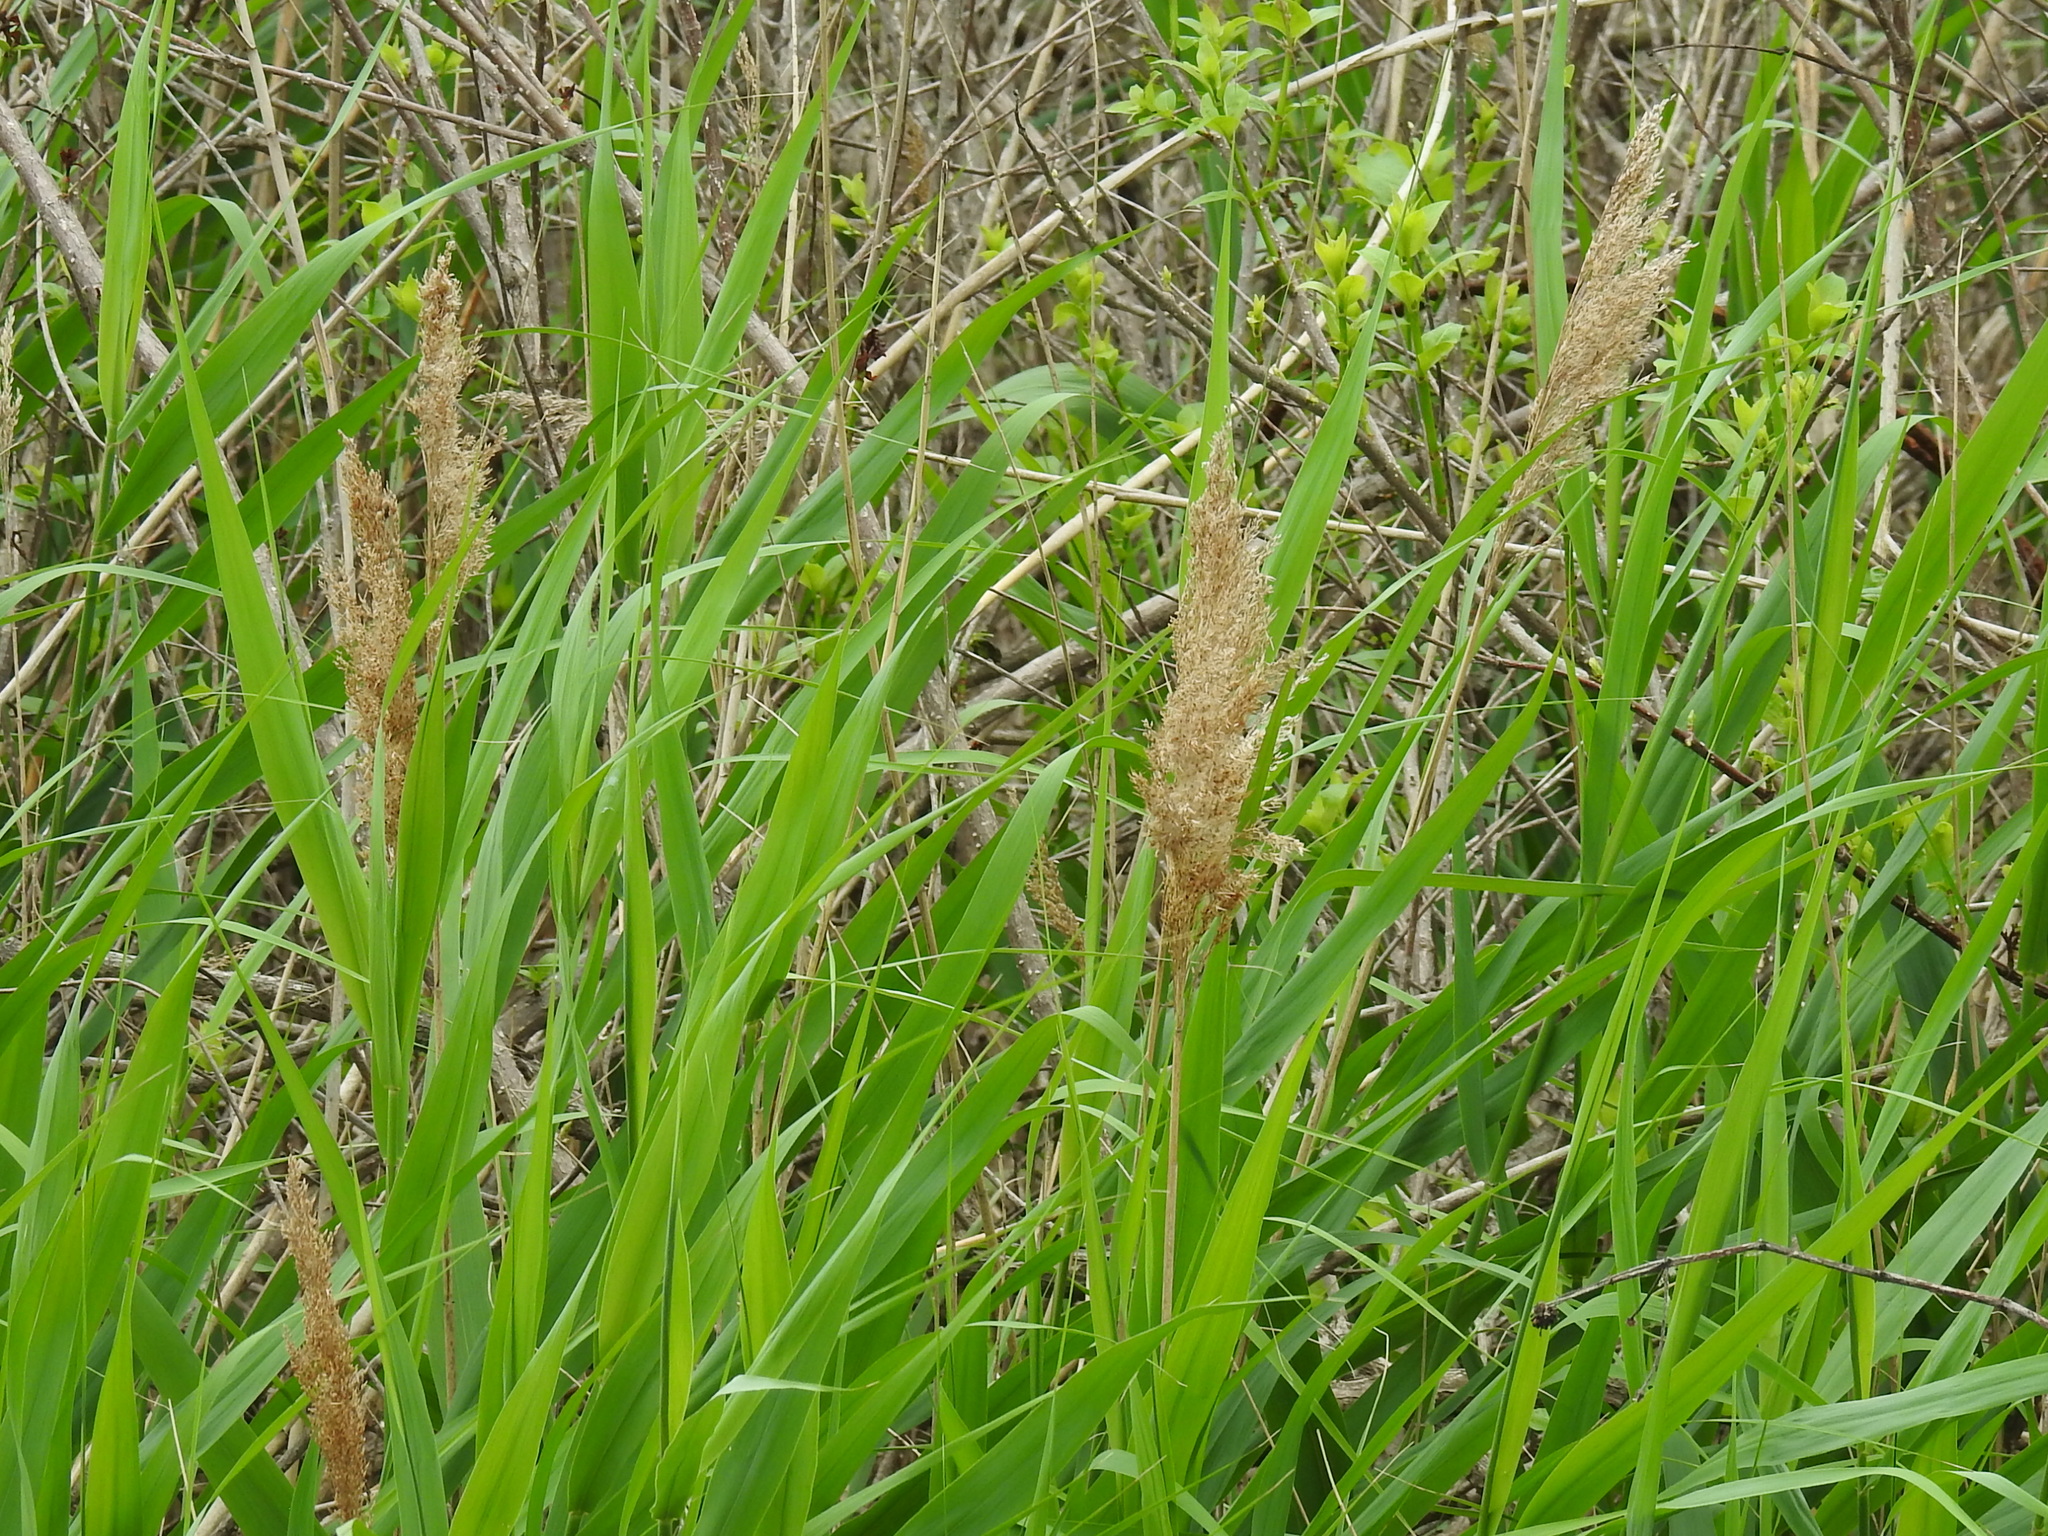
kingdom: Plantae
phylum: Tracheophyta
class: Liliopsida
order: Poales
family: Poaceae
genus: Phragmites
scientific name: Phragmites australis
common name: Common reed
